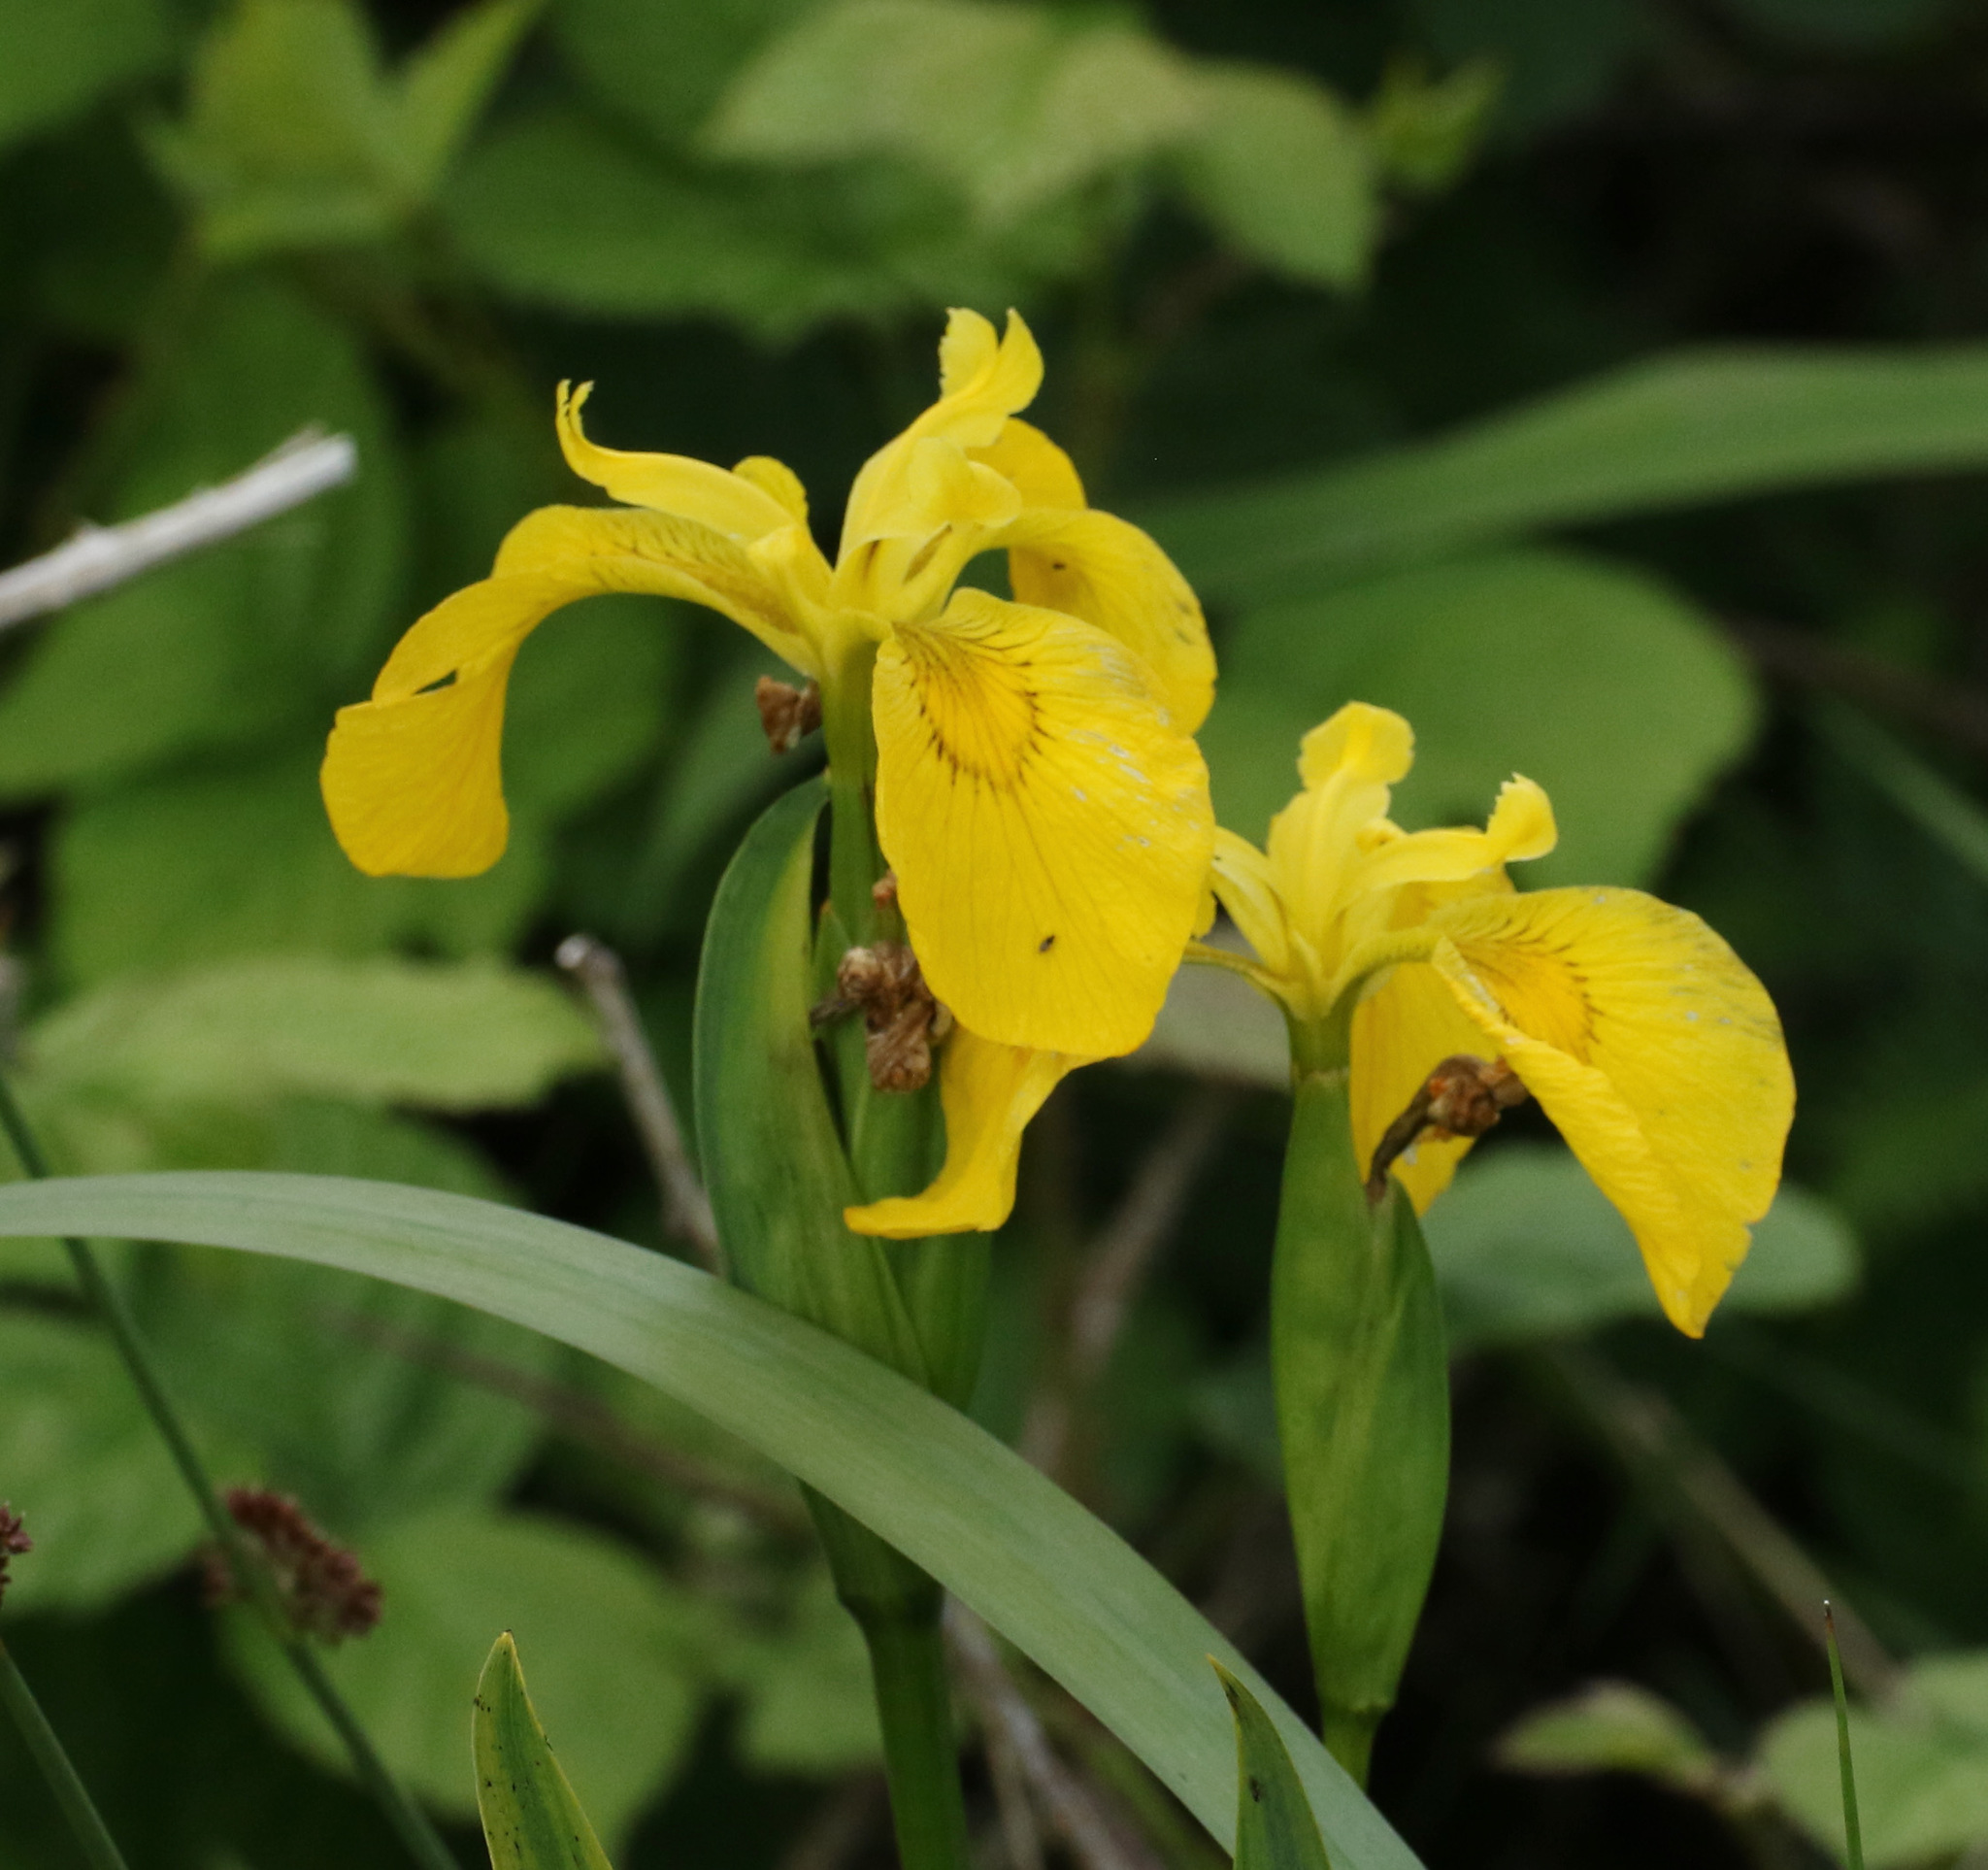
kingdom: Plantae
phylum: Tracheophyta
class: Liliopsida
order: Asparagales
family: Iridaceae
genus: Iris
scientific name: Iris pseudacorus
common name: Yellow flag
